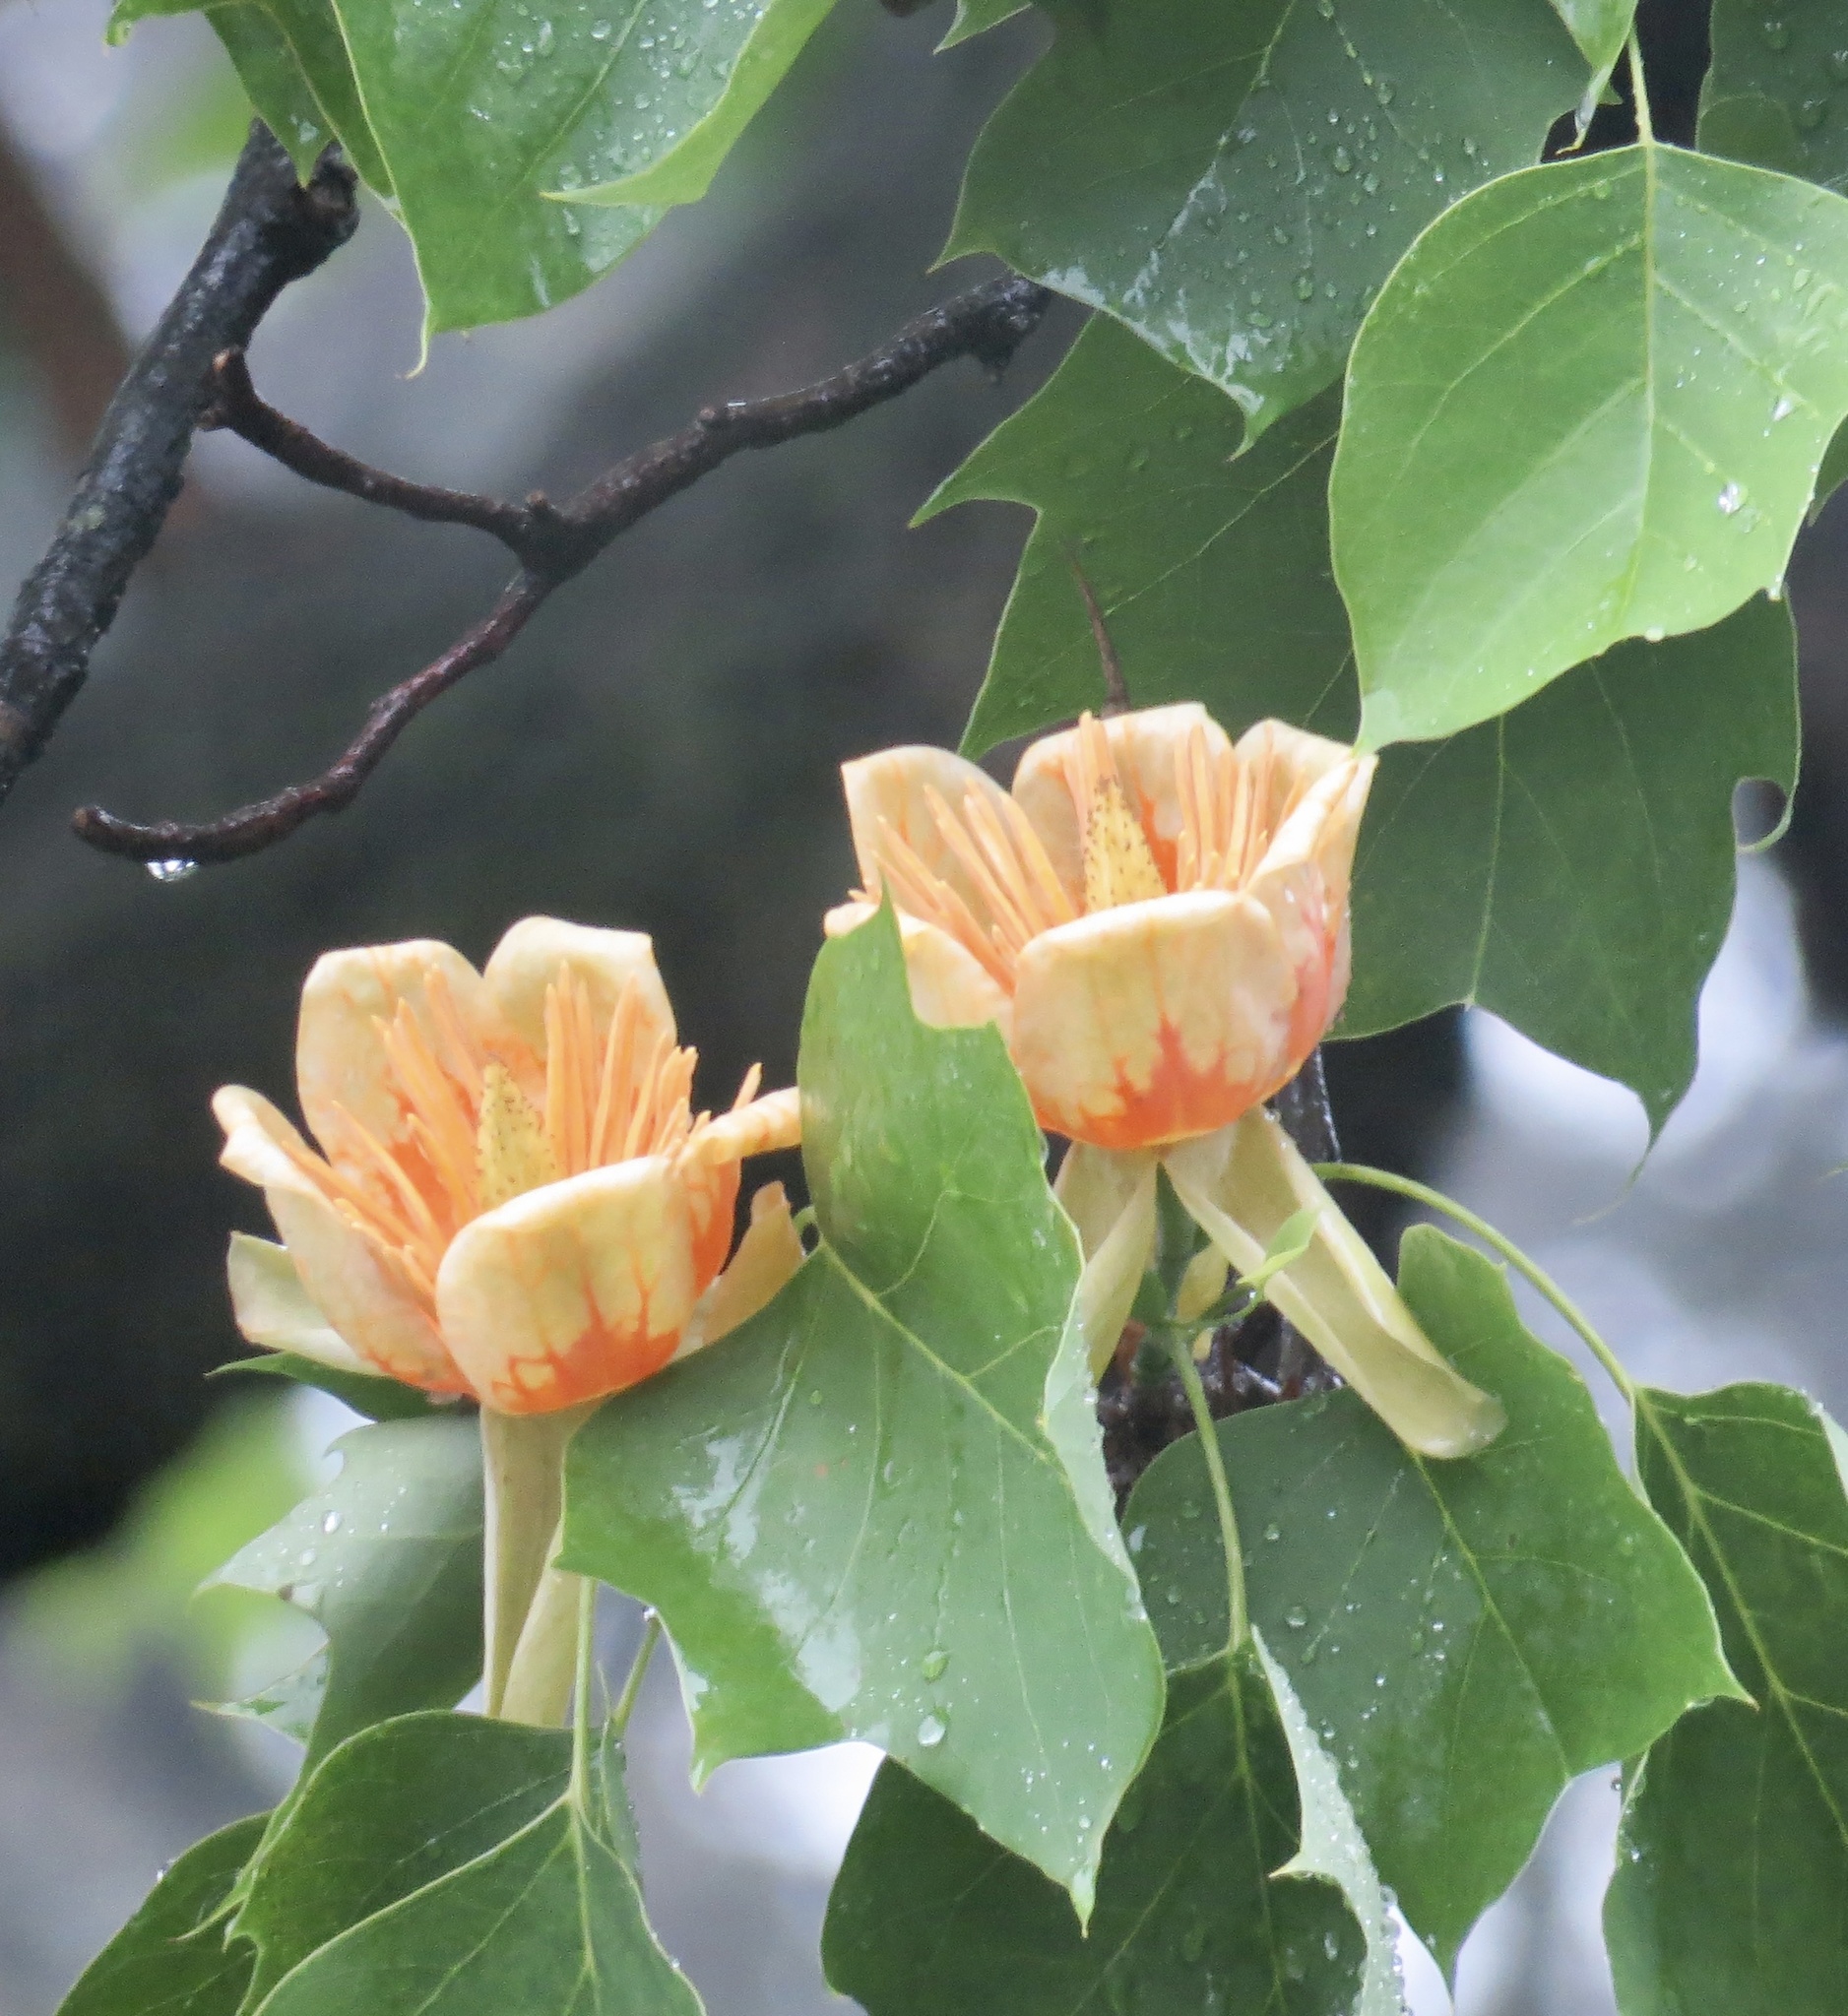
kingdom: Plantae
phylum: Tracheophyta
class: Magnoliopsida
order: Magnoliales
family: Magnoliaceae
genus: Liriodendron
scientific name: Liriodendron tulipifera
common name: Tulip tree
